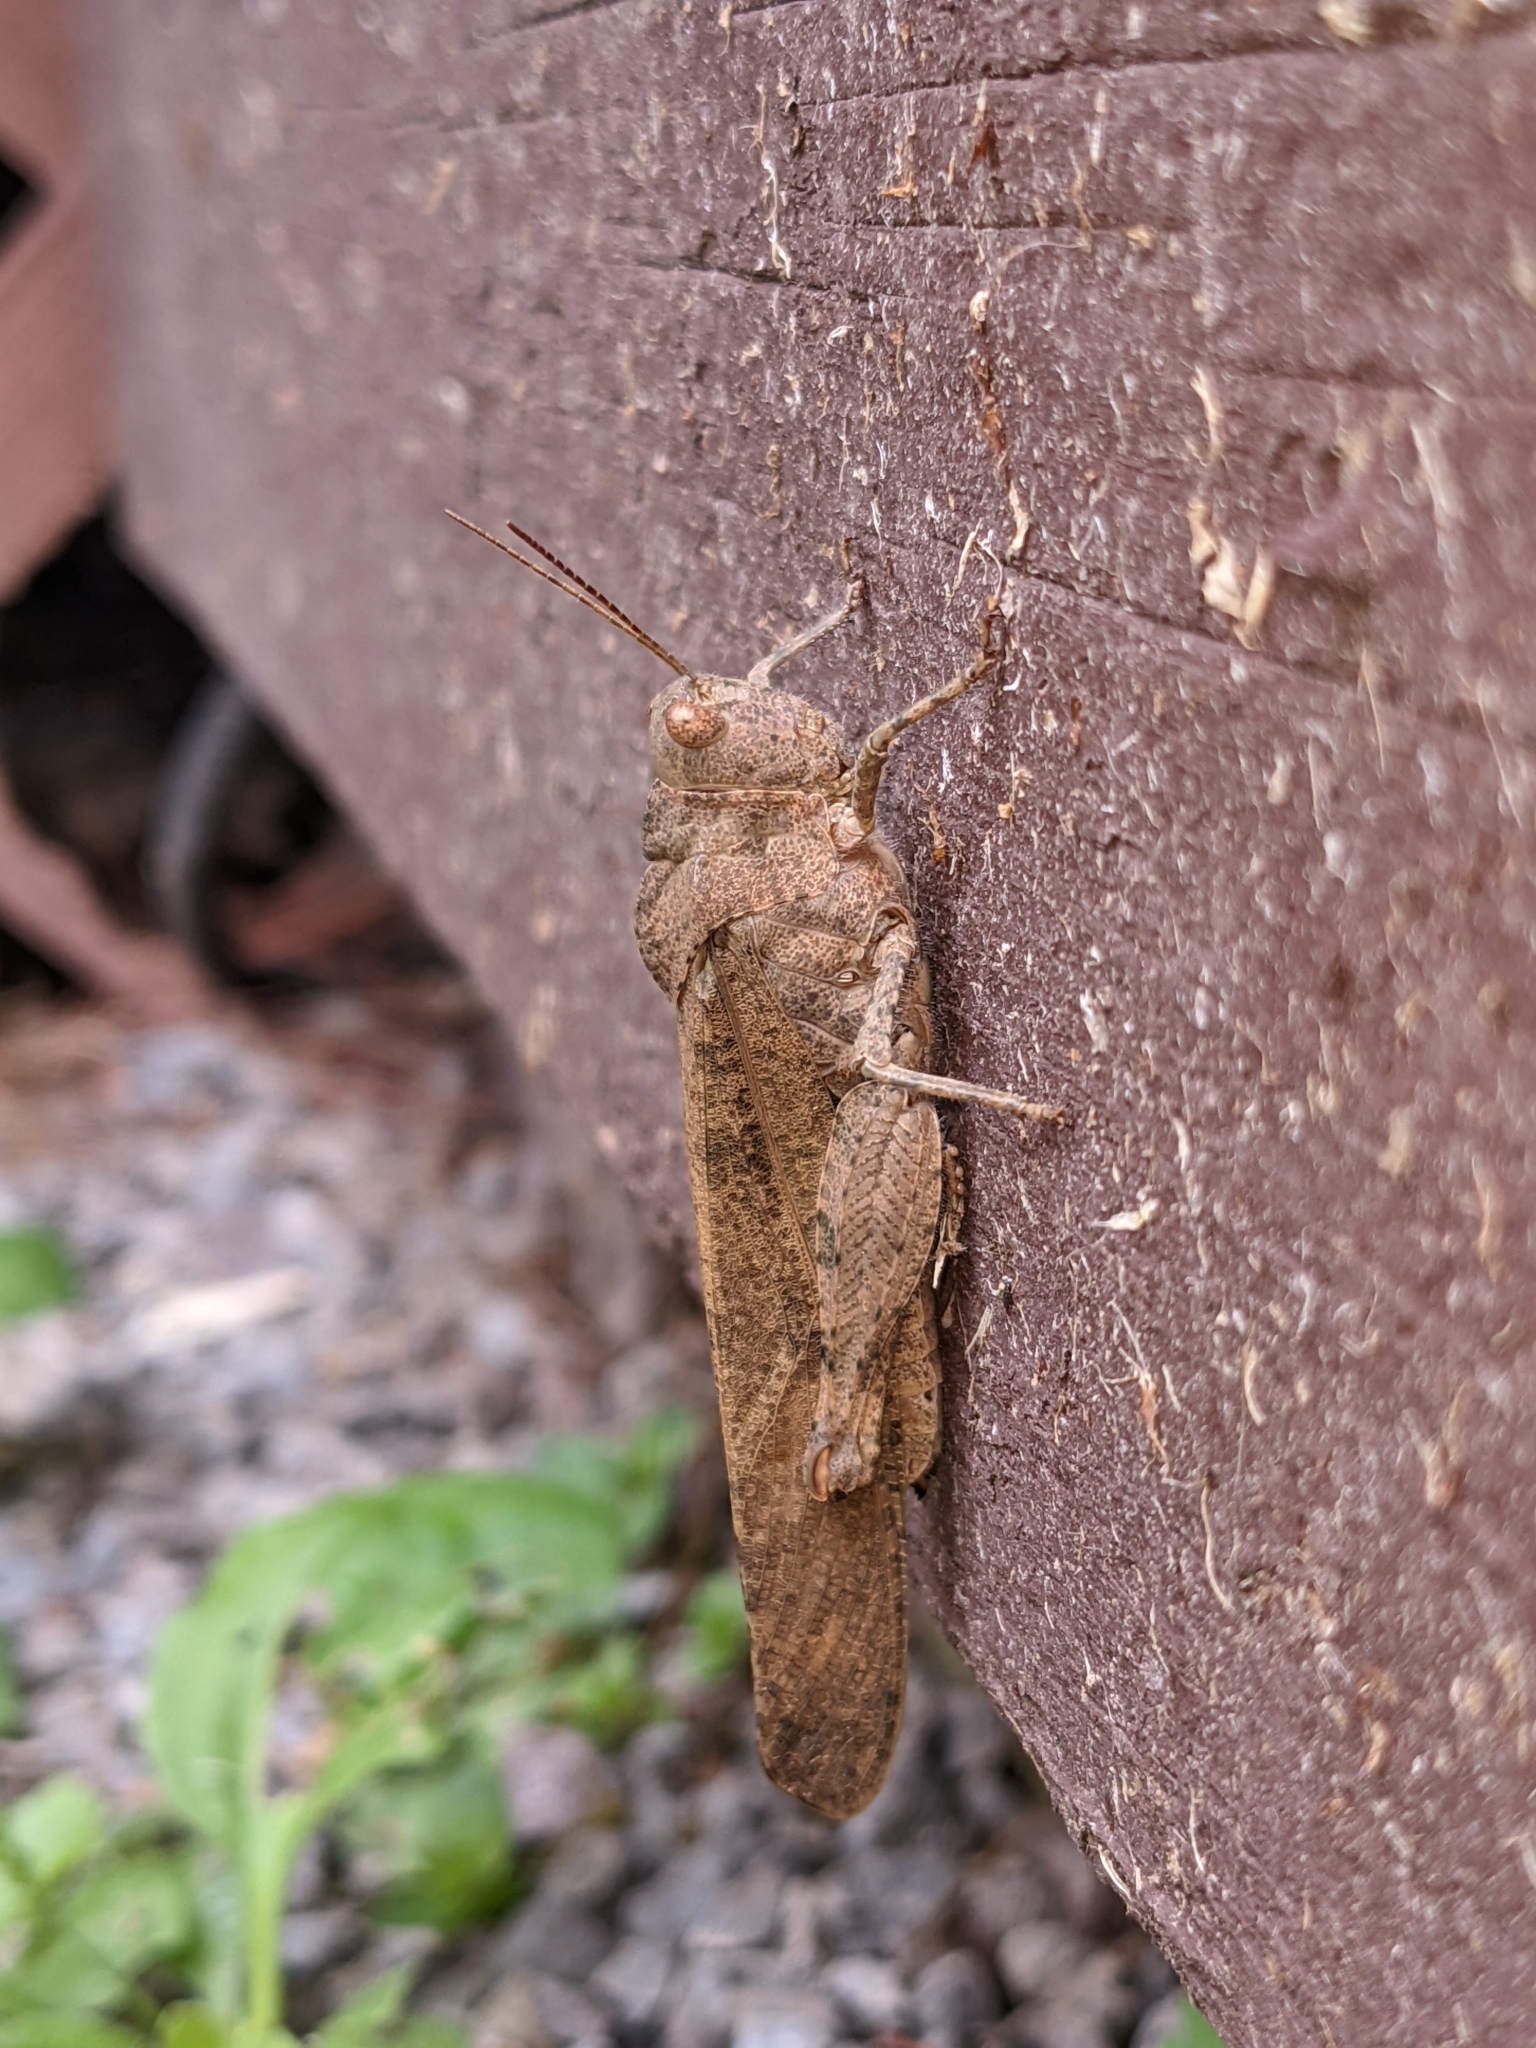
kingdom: Animalia
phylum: Arthropoda
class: Insecta
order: Orthoptera
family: Acrididae
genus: Dissosteira
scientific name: Dissosteira carolina
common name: Carolina grasshopper
